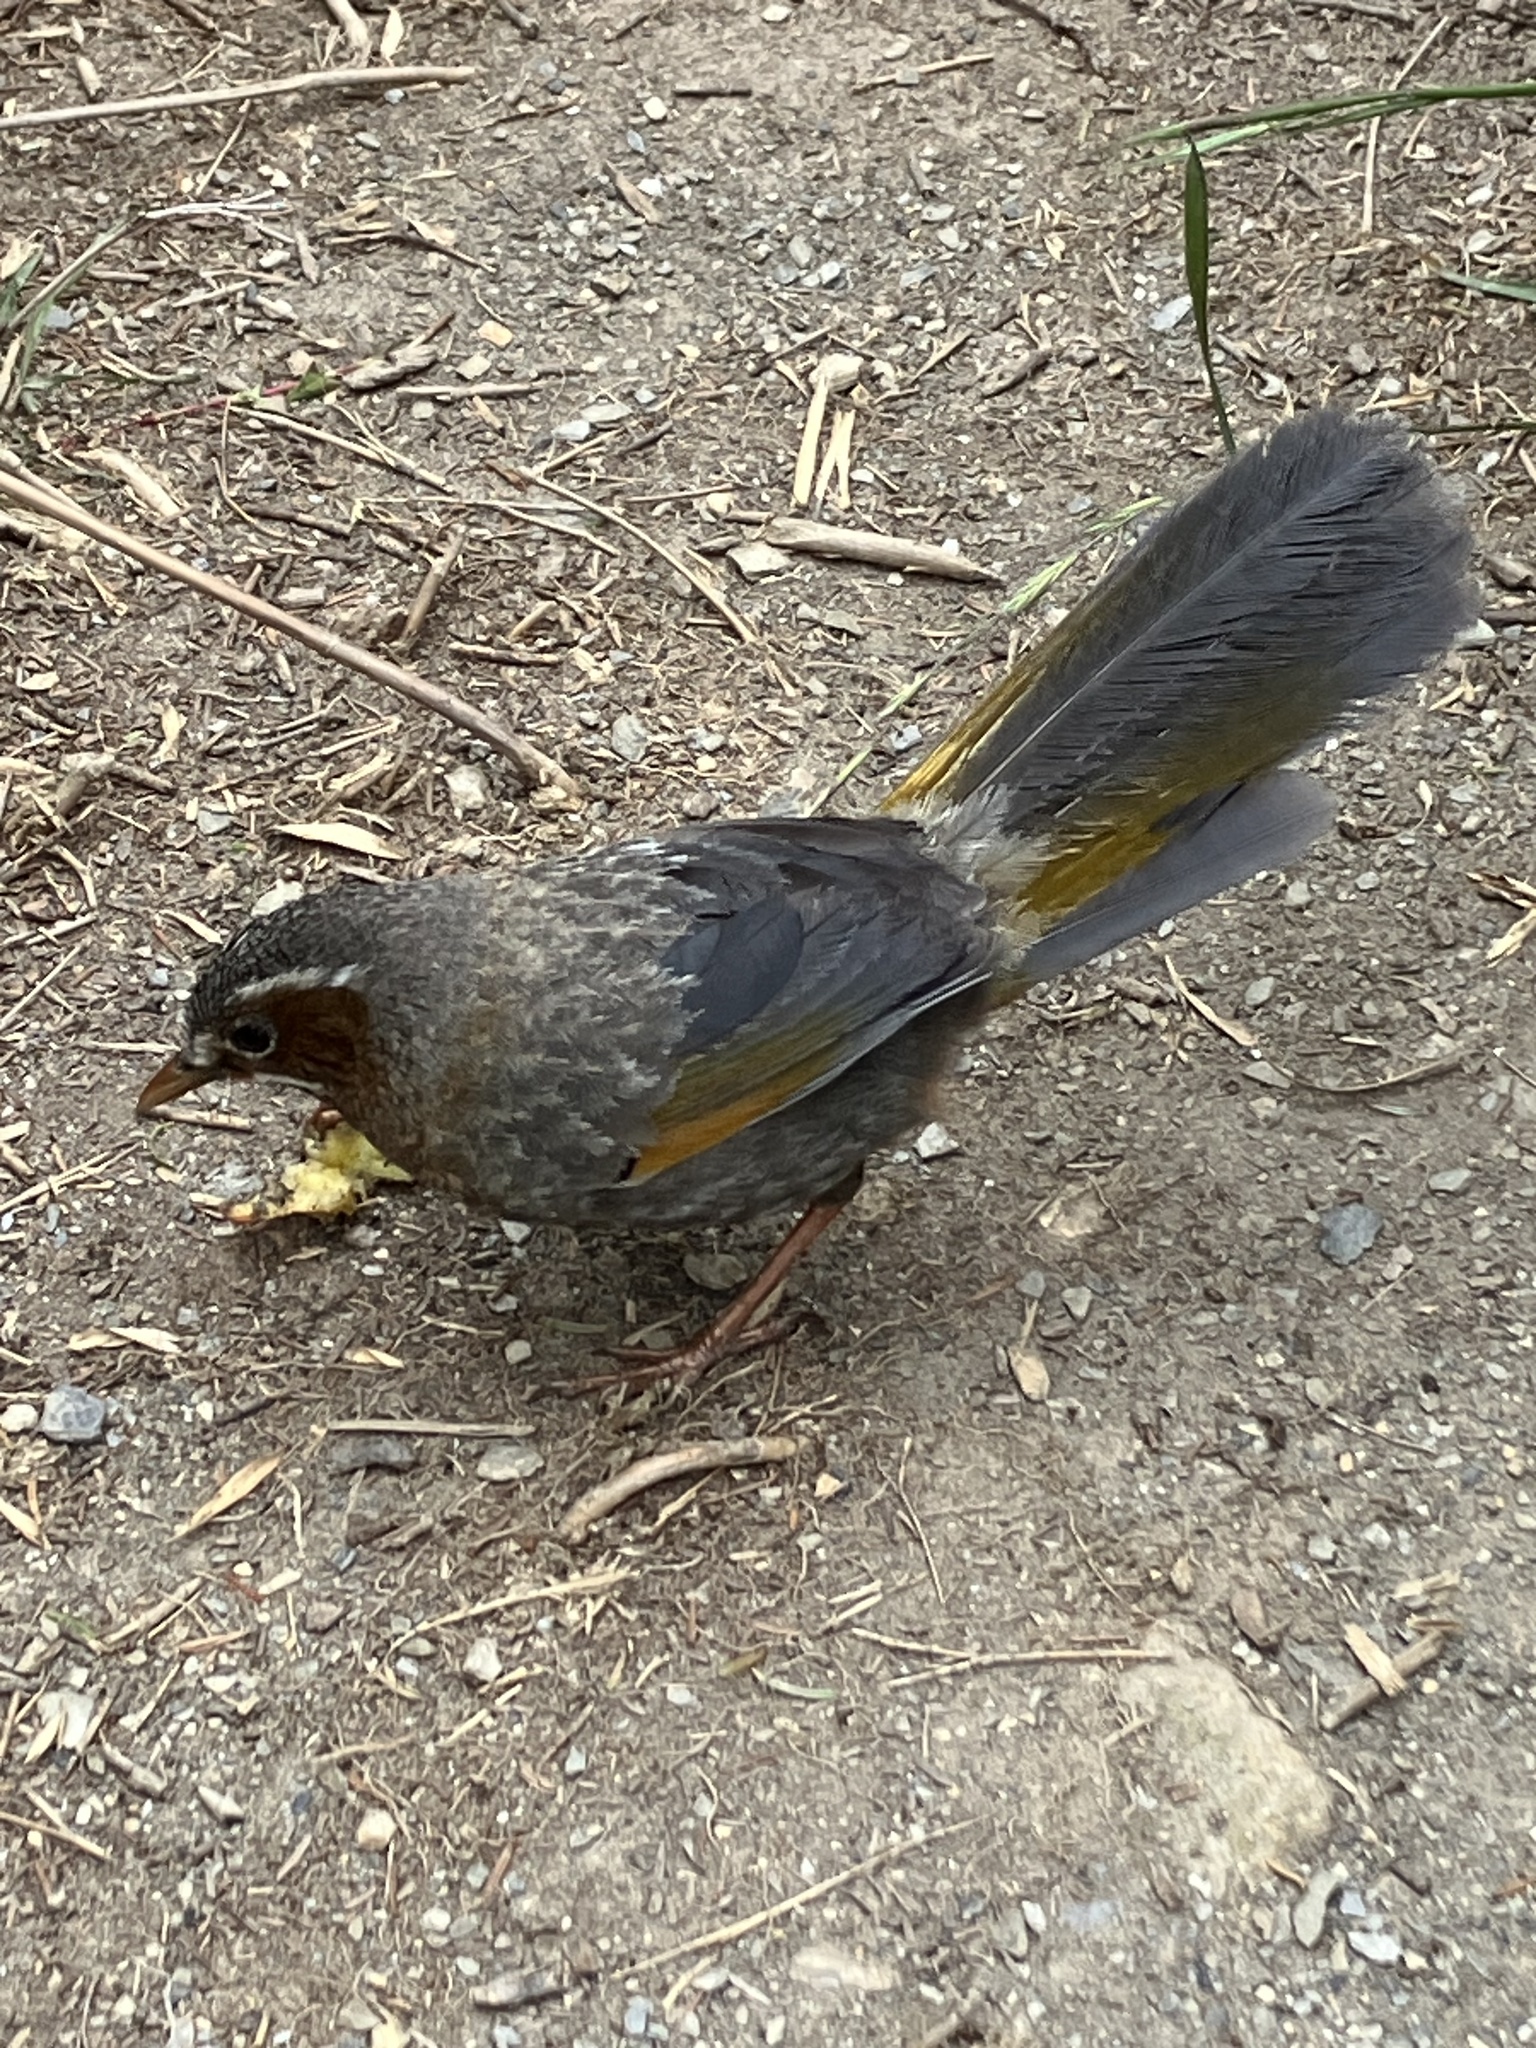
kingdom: Animalia
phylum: Chordata
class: Aves
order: Passeriformes
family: Leiothrichidae
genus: Trochalopteron
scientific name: Trochalopteron morrisonianum
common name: White-whiskered laughingthrush
